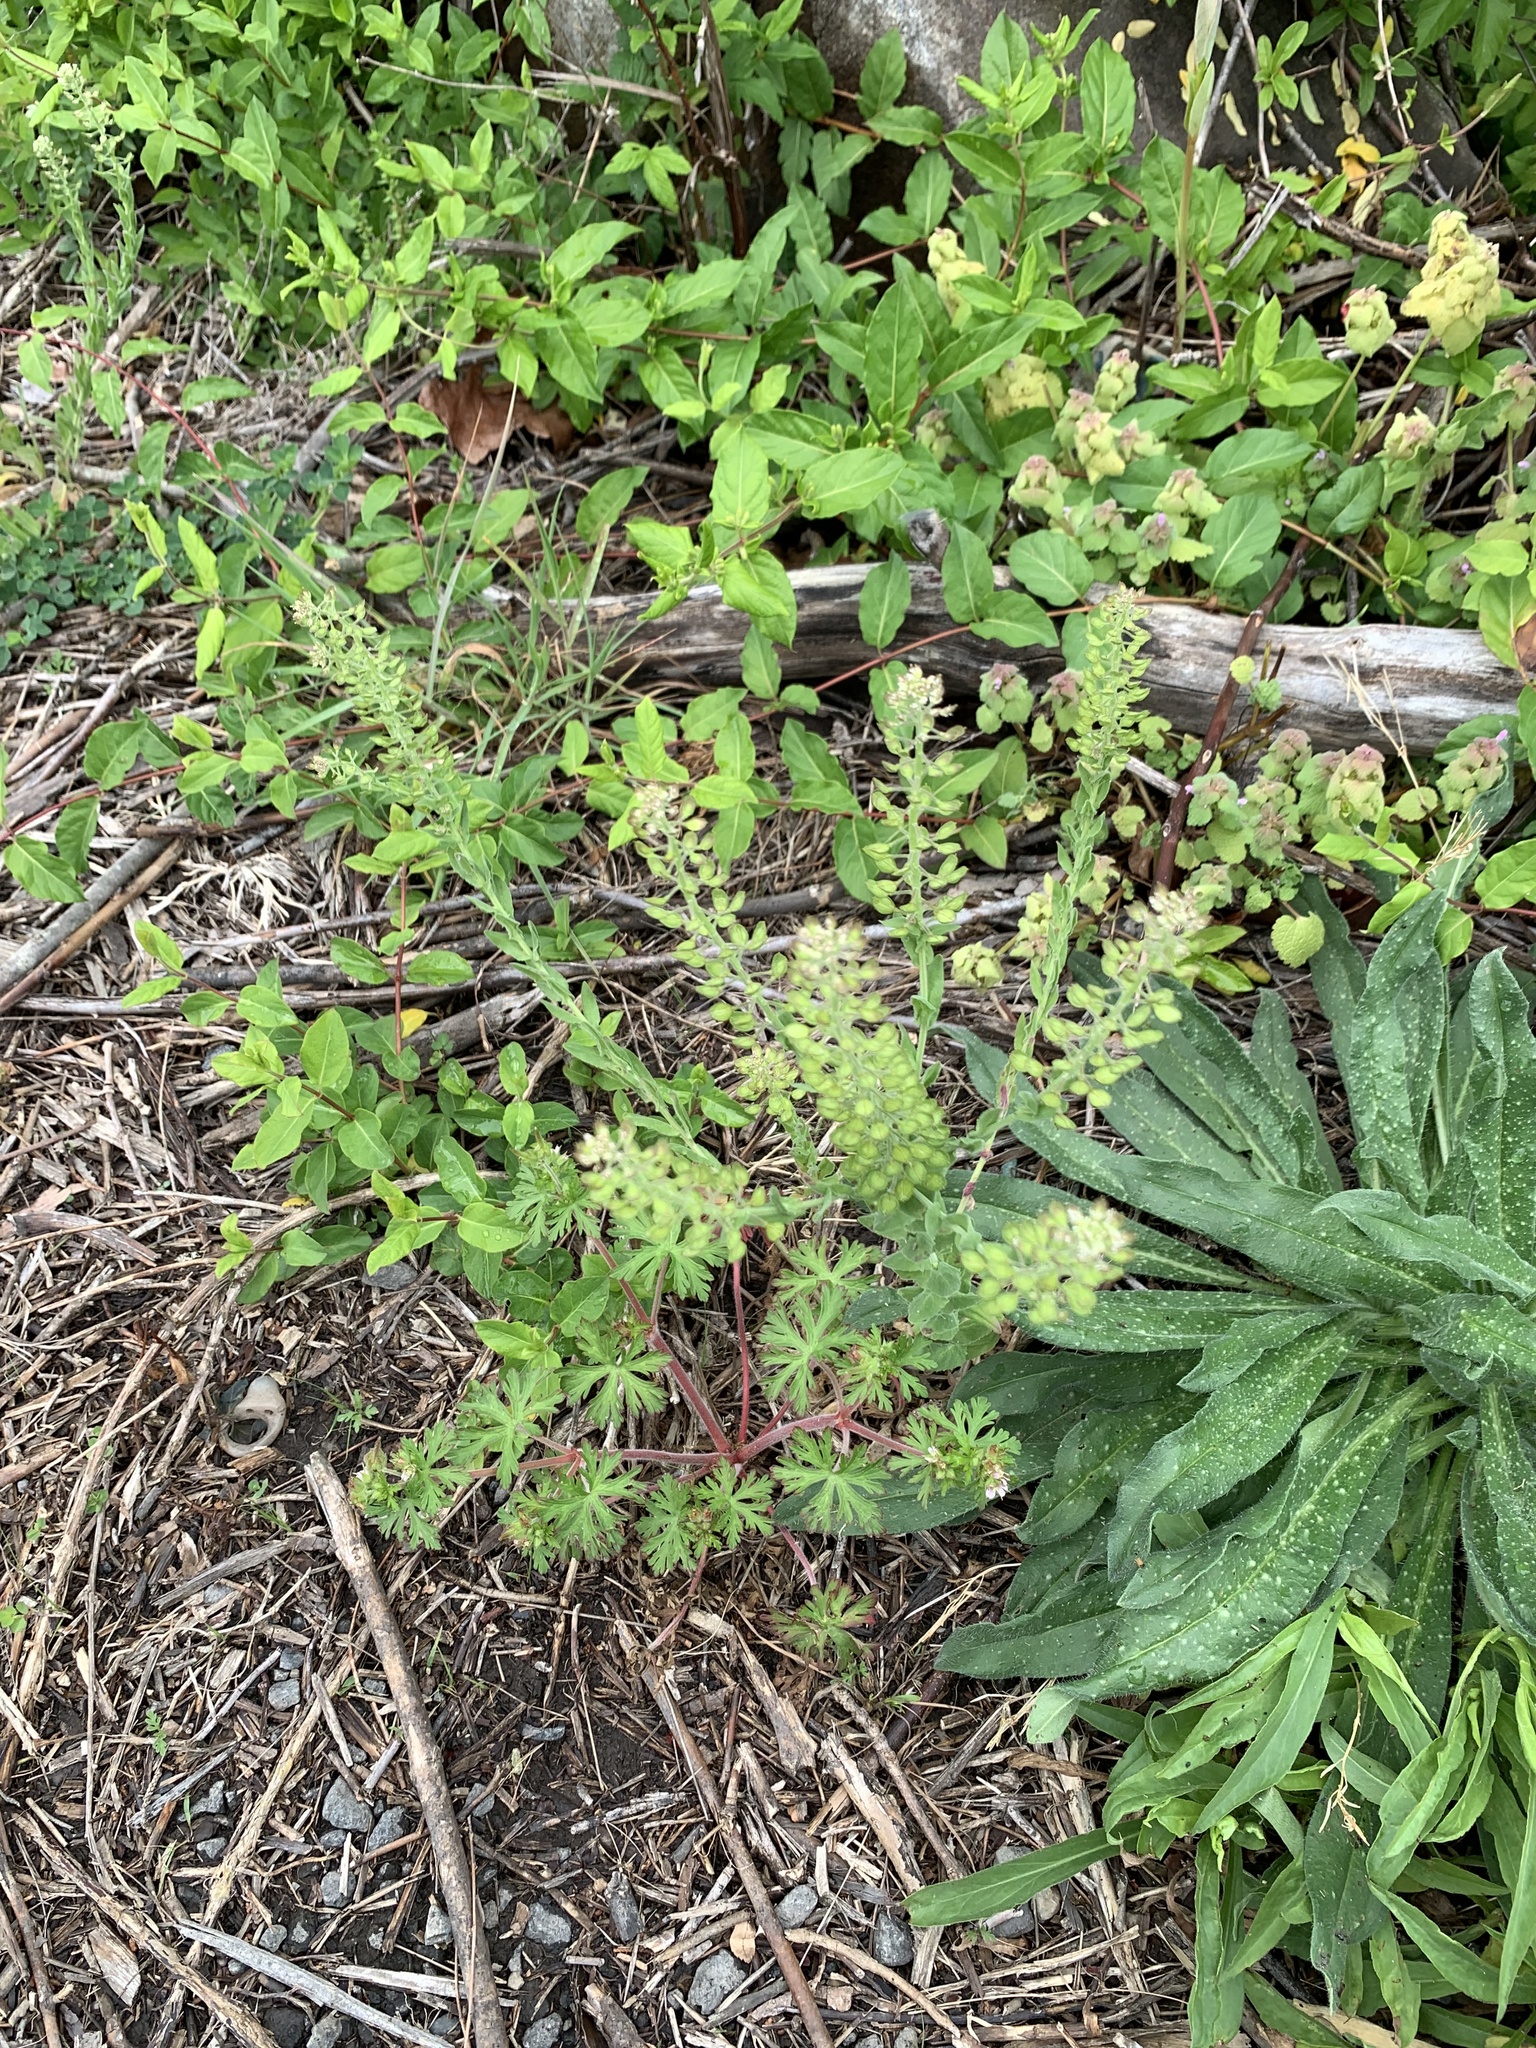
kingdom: Plantae
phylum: Tracheophyta
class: Magnoliopsida
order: Brassicales
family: Brassicaceae
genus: Lepidium
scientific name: Lepidium campestre
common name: Field pepperwort
